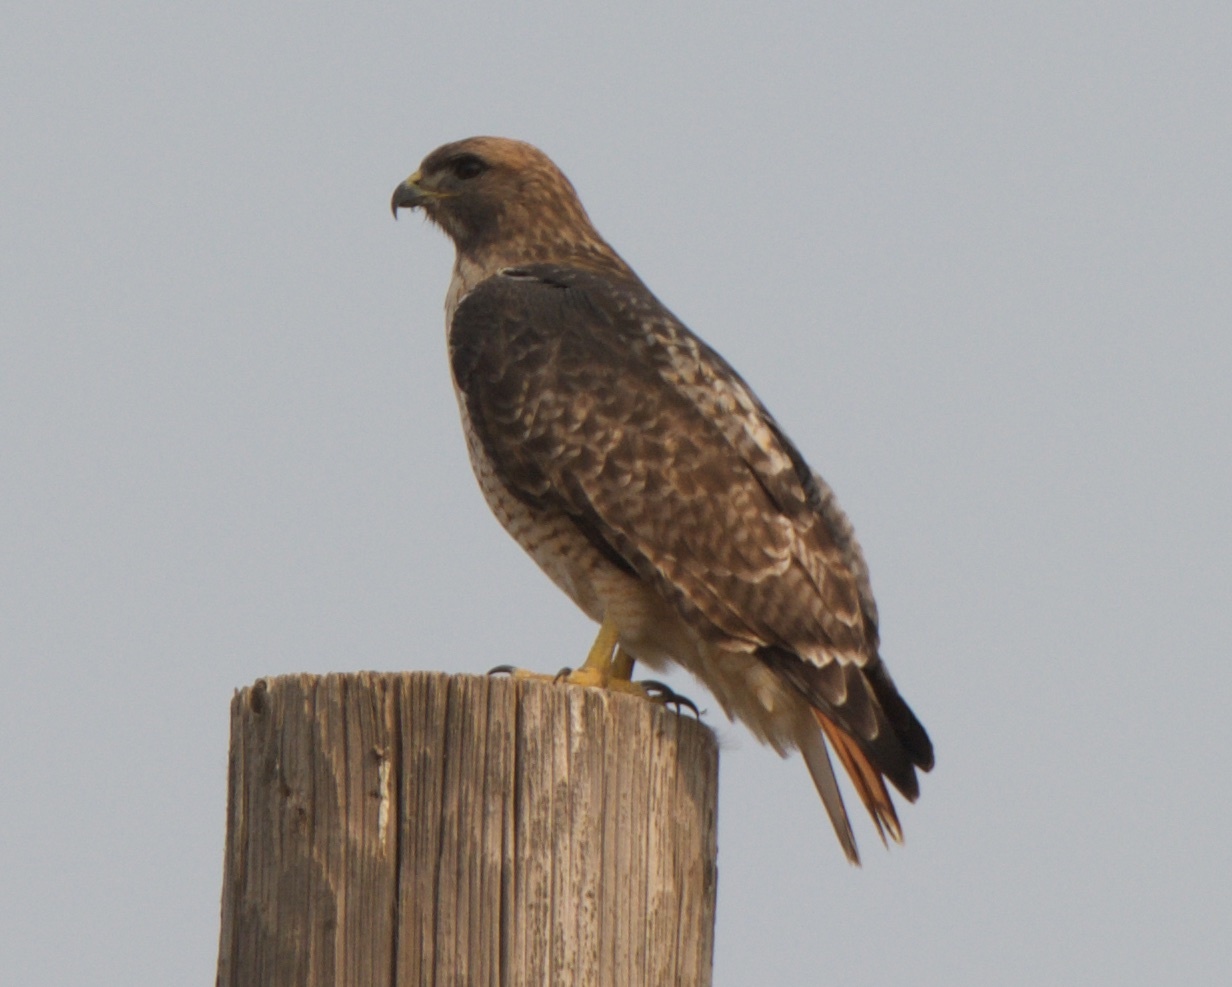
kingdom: Animalia
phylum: Chordata
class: Aves
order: Accipitriformes
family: Accipitridae
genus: Buteo
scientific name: Buteo jamaicensis
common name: Red-tailed hawk
